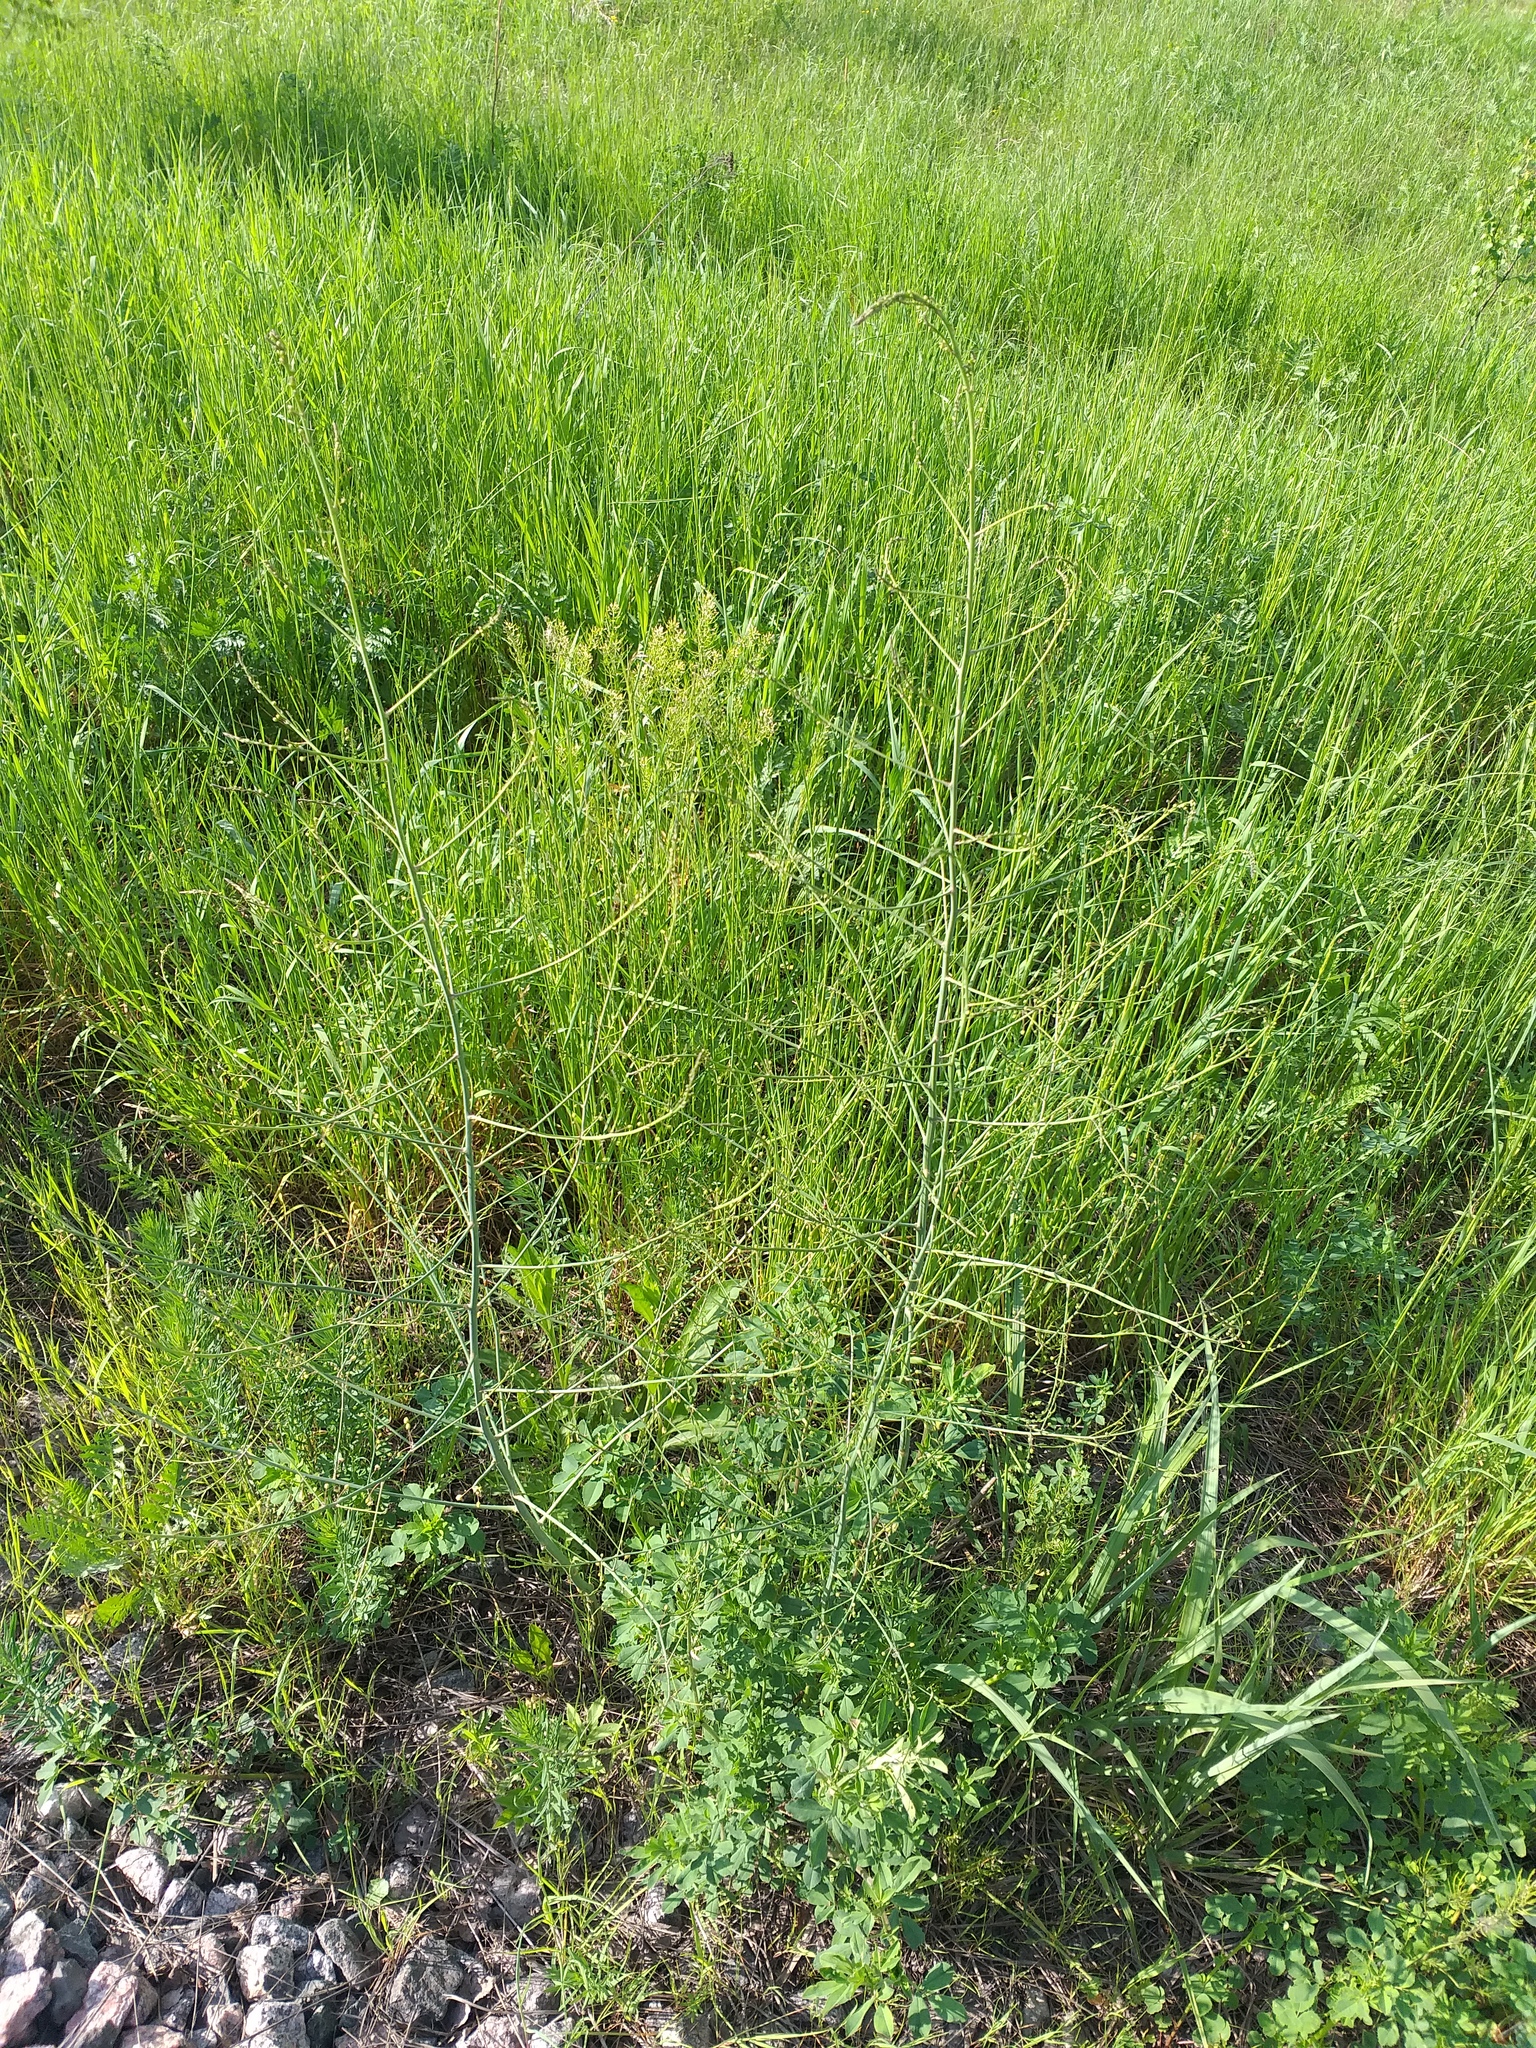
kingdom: Plantae
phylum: Tracheophyta
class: Liliopsida
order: Asparagales
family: Asparagaceae
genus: Asparagus
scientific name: Asparagus officinalis
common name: Garden asparagus
